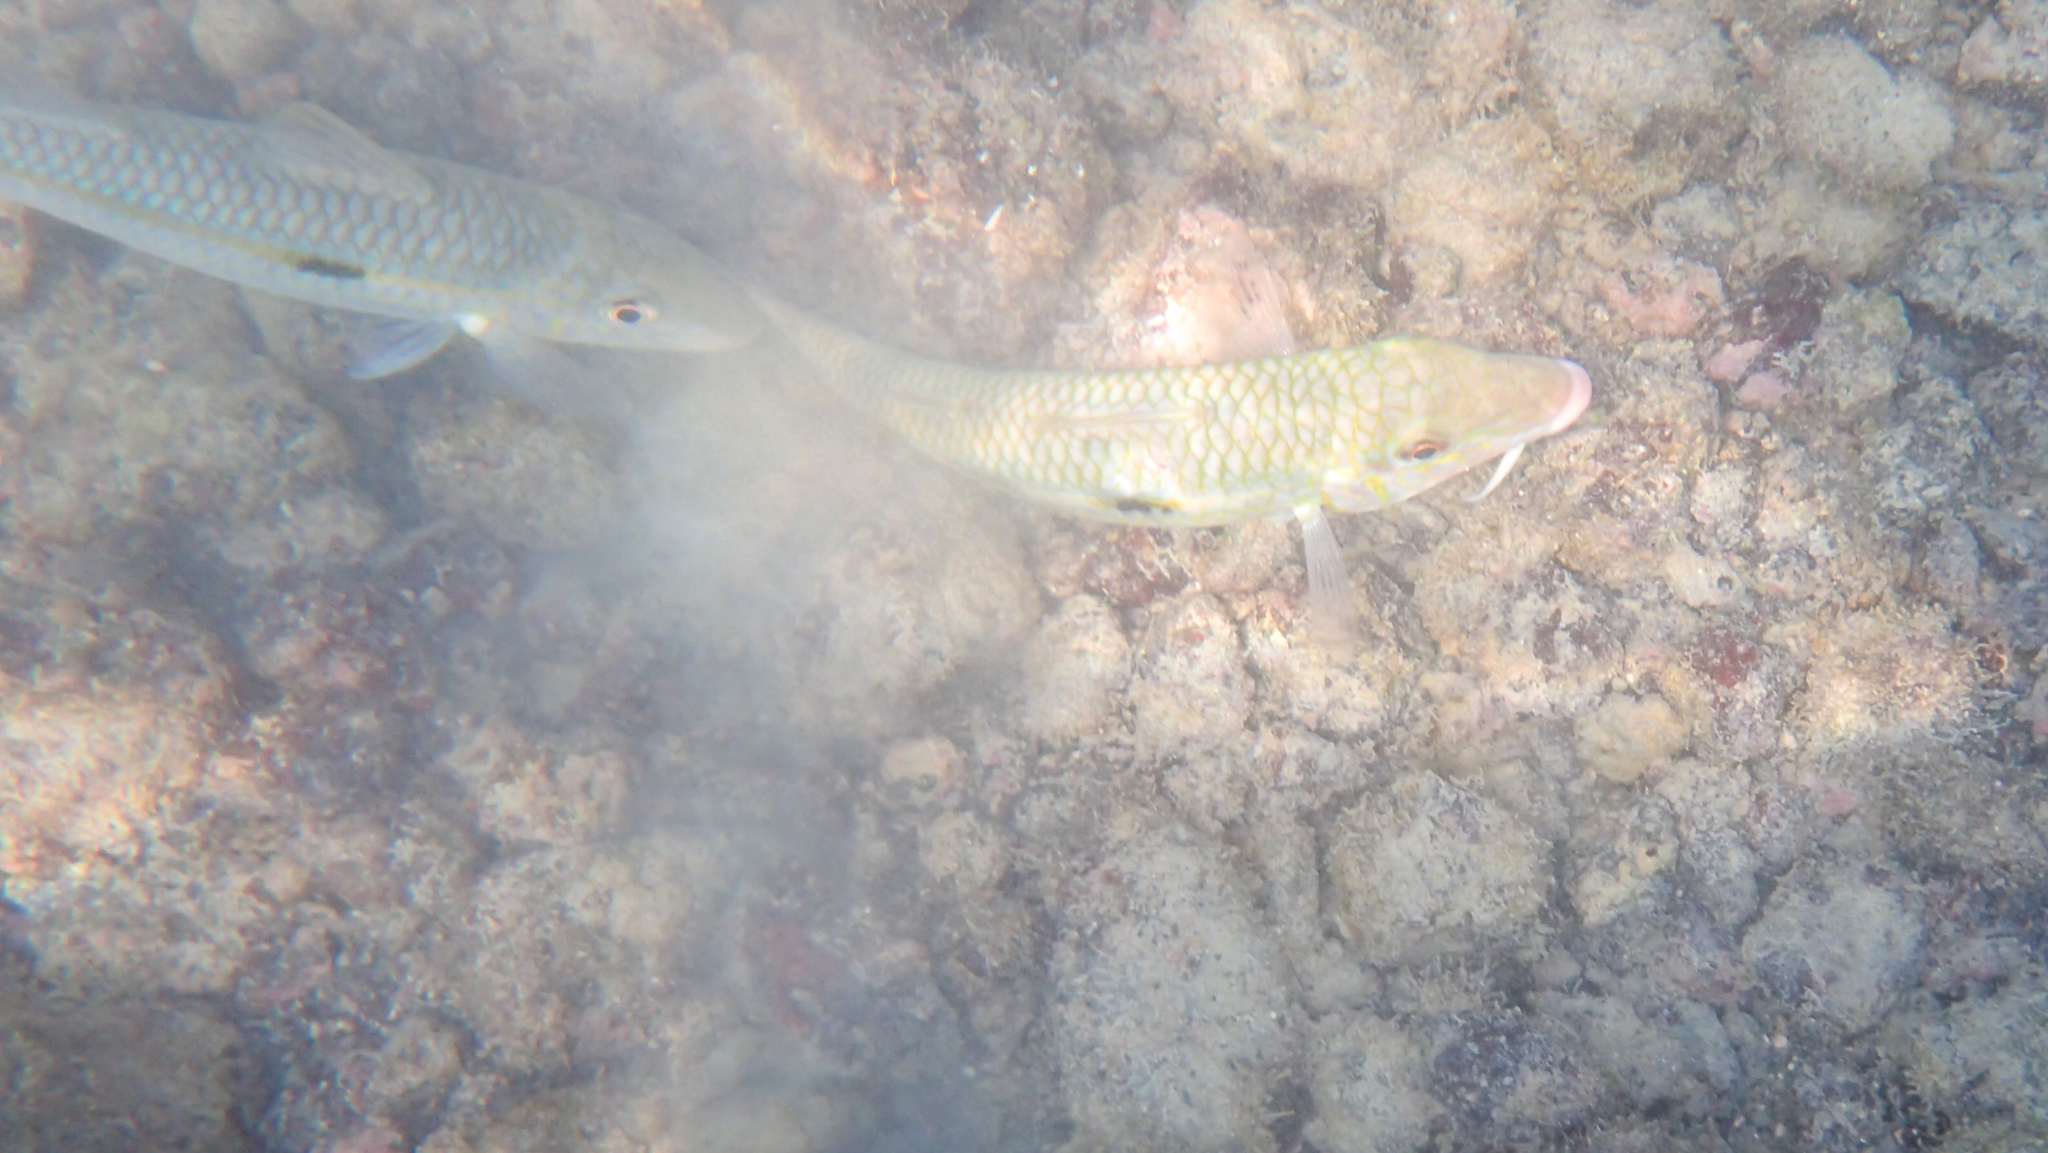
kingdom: Animalia
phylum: Chordata
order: Perciformes
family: Mullidae
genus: Mulloidichthys
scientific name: Mulloidichthys flavolineatus
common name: Yellowstripe goatfish
